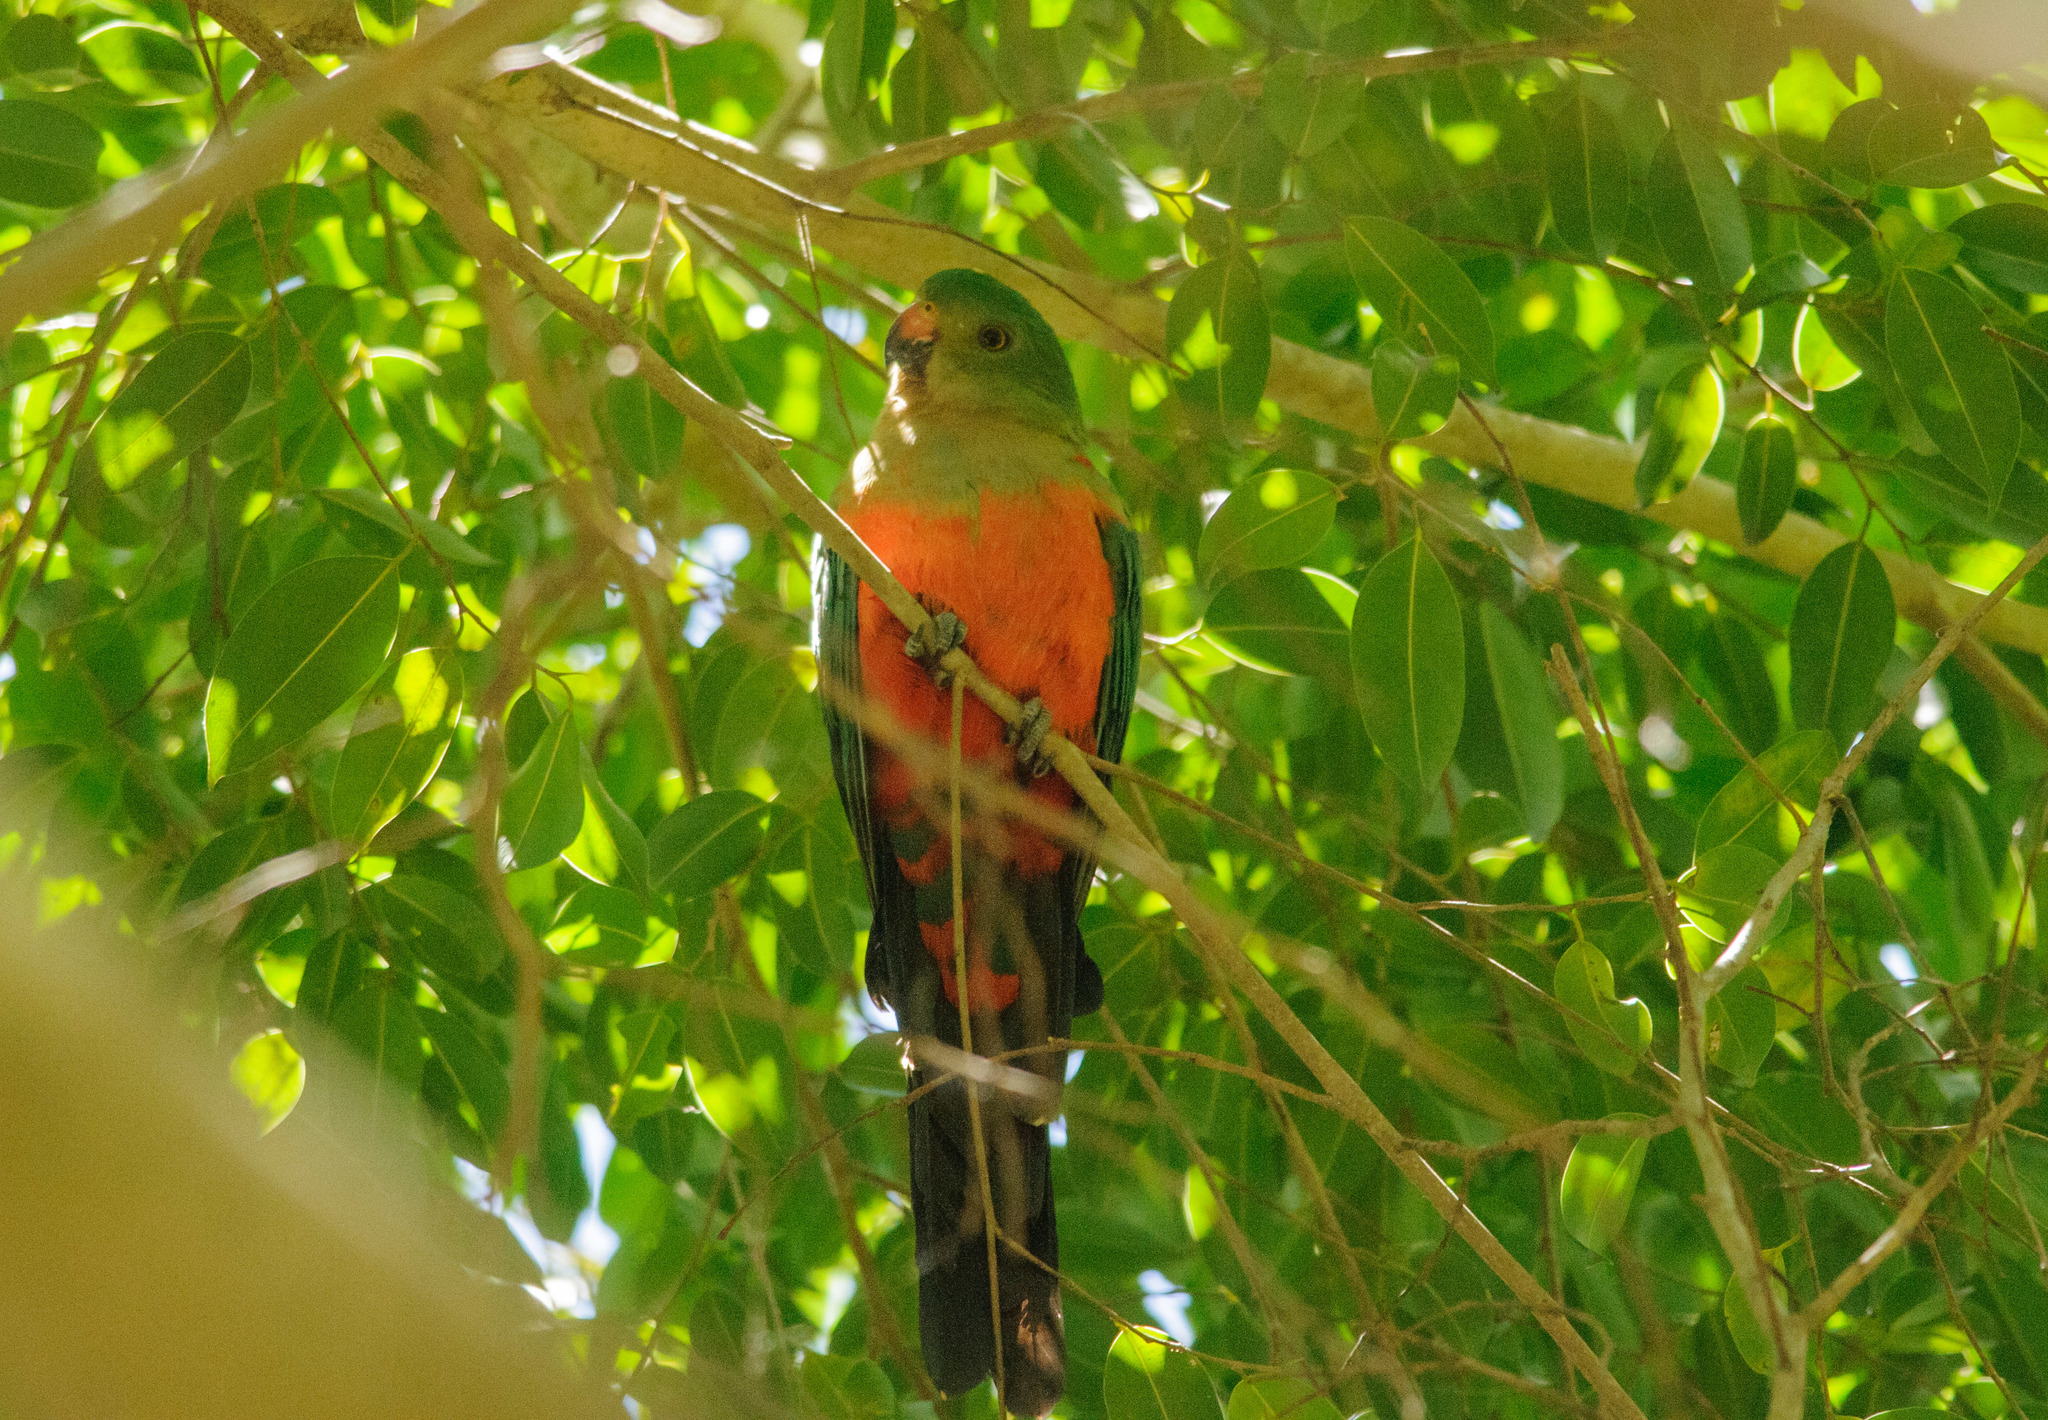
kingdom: Animalia
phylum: Chordata
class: Aves
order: Psittaciformes
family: Psittacidae
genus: Alisterus
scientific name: Alisterus scapularis
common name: Australian king parrot
